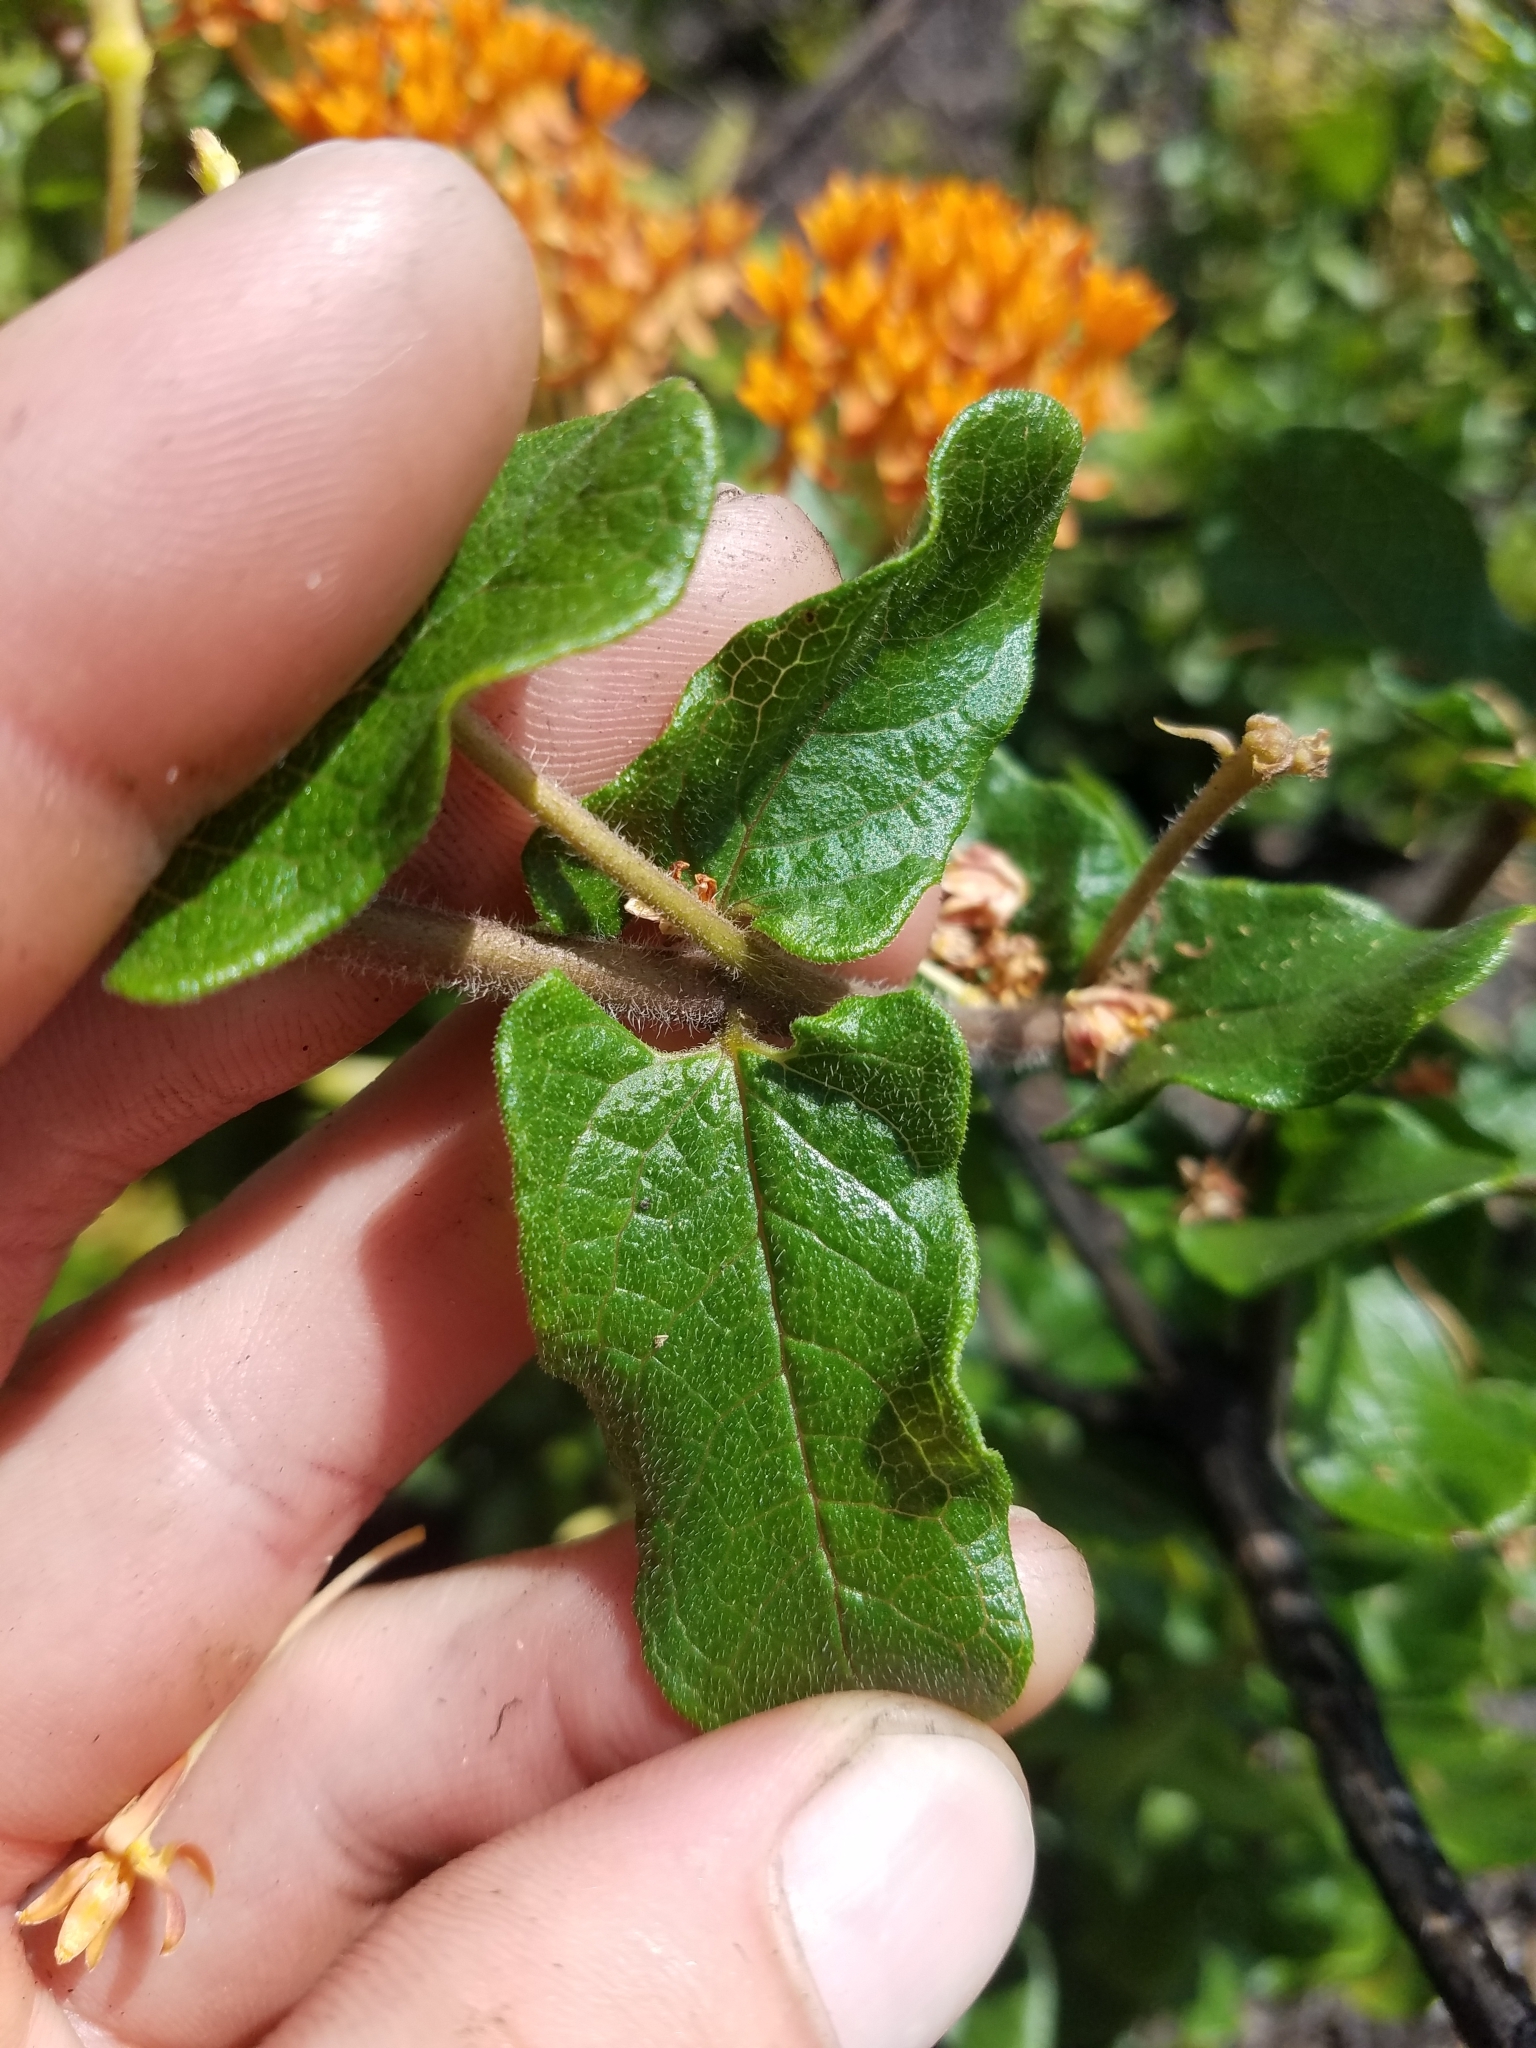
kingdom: Plantae
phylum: Tracheophyta
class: Magnoliopsida
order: Gentianales
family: Apocynaceae
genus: Asclepias
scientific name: Asclepias tuberosa
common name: Butterfly milkweed
